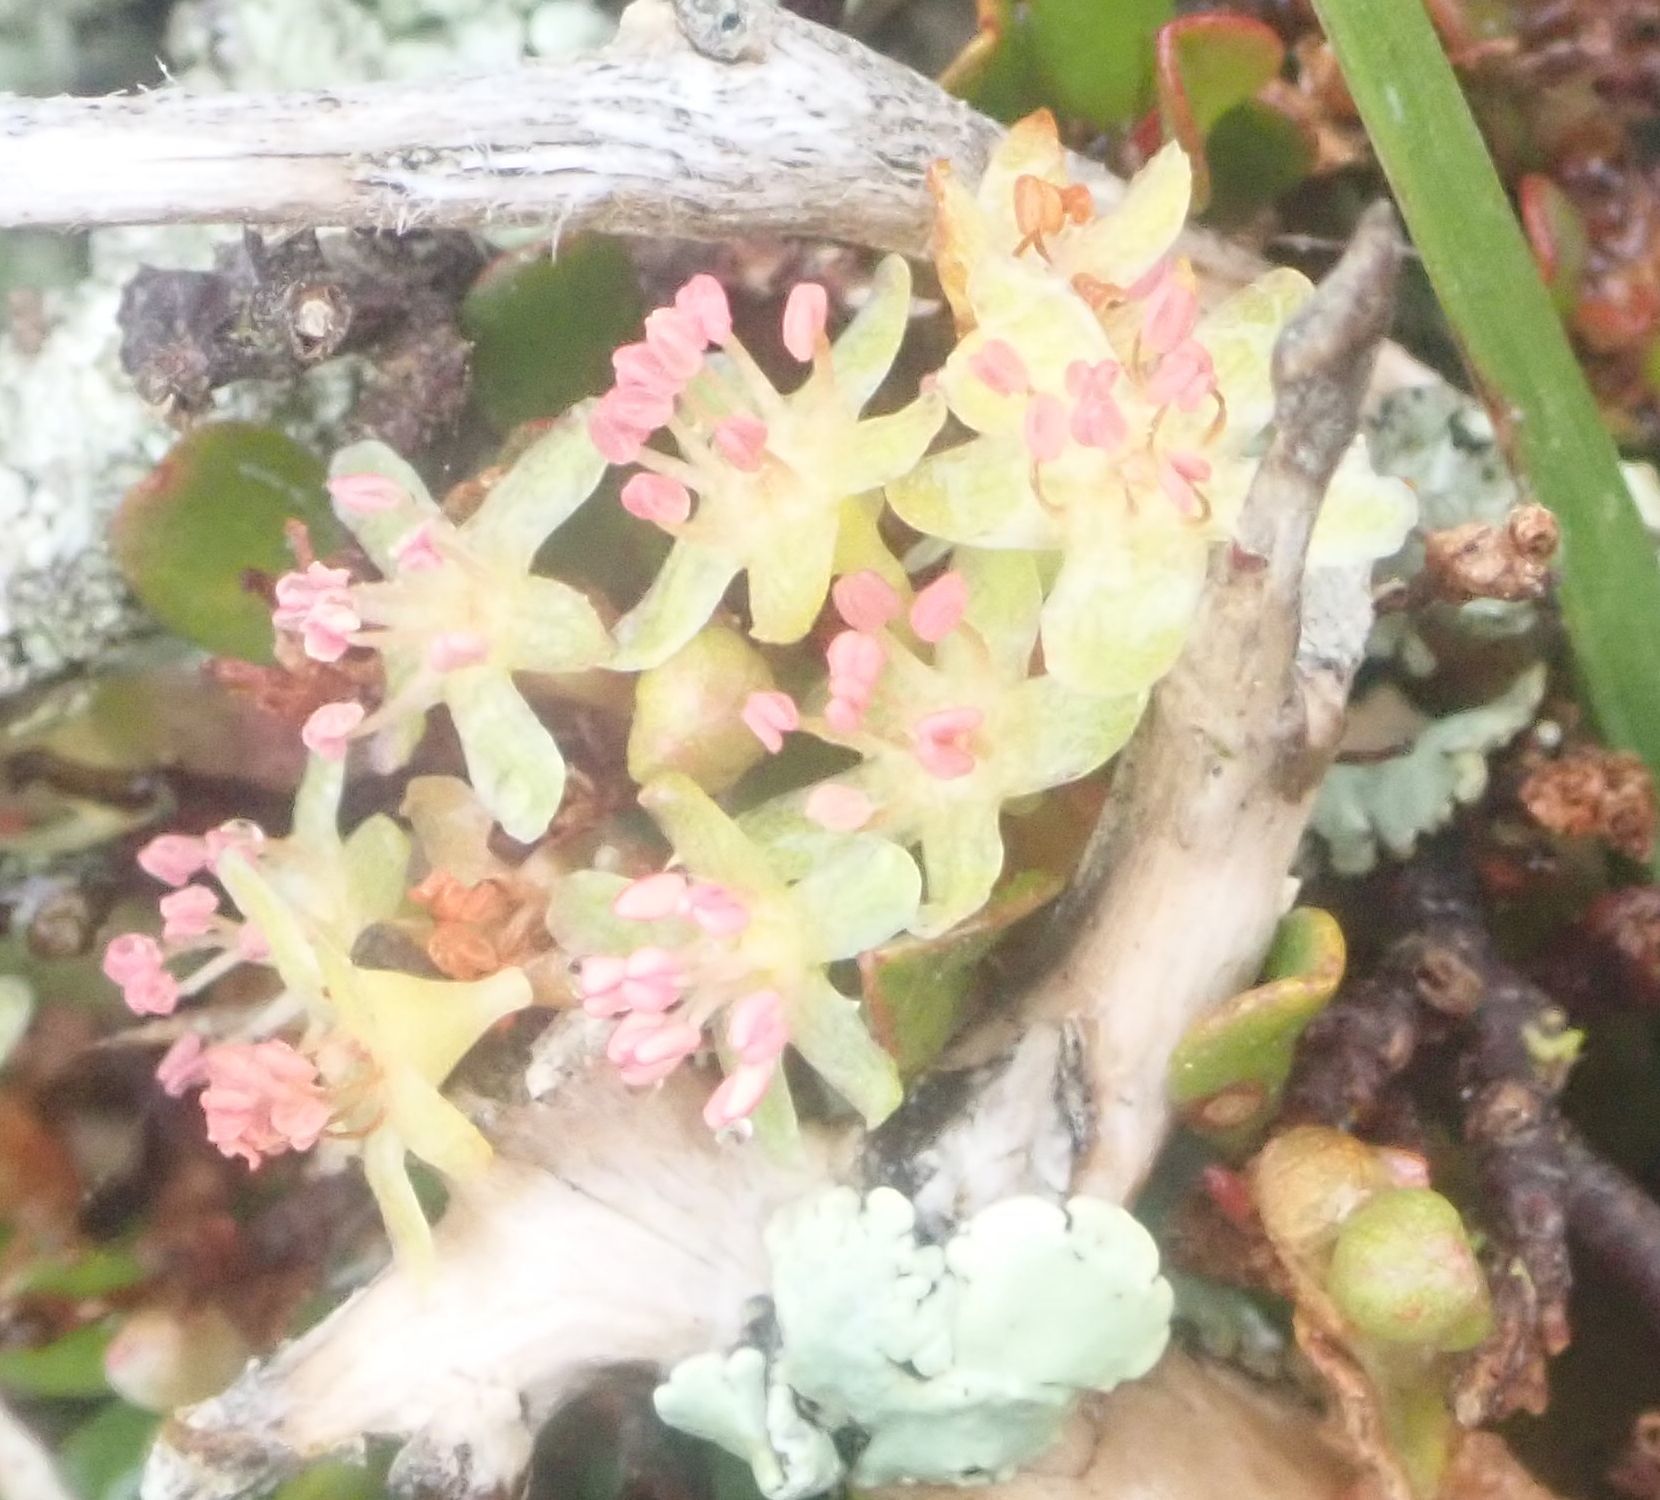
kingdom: Plantae
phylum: Tracheophyta
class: Magnoliopsida
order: Caryophyllales
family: Polygonaceae
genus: Muehlenbeckia
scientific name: Muehlenbeckia axillaris
